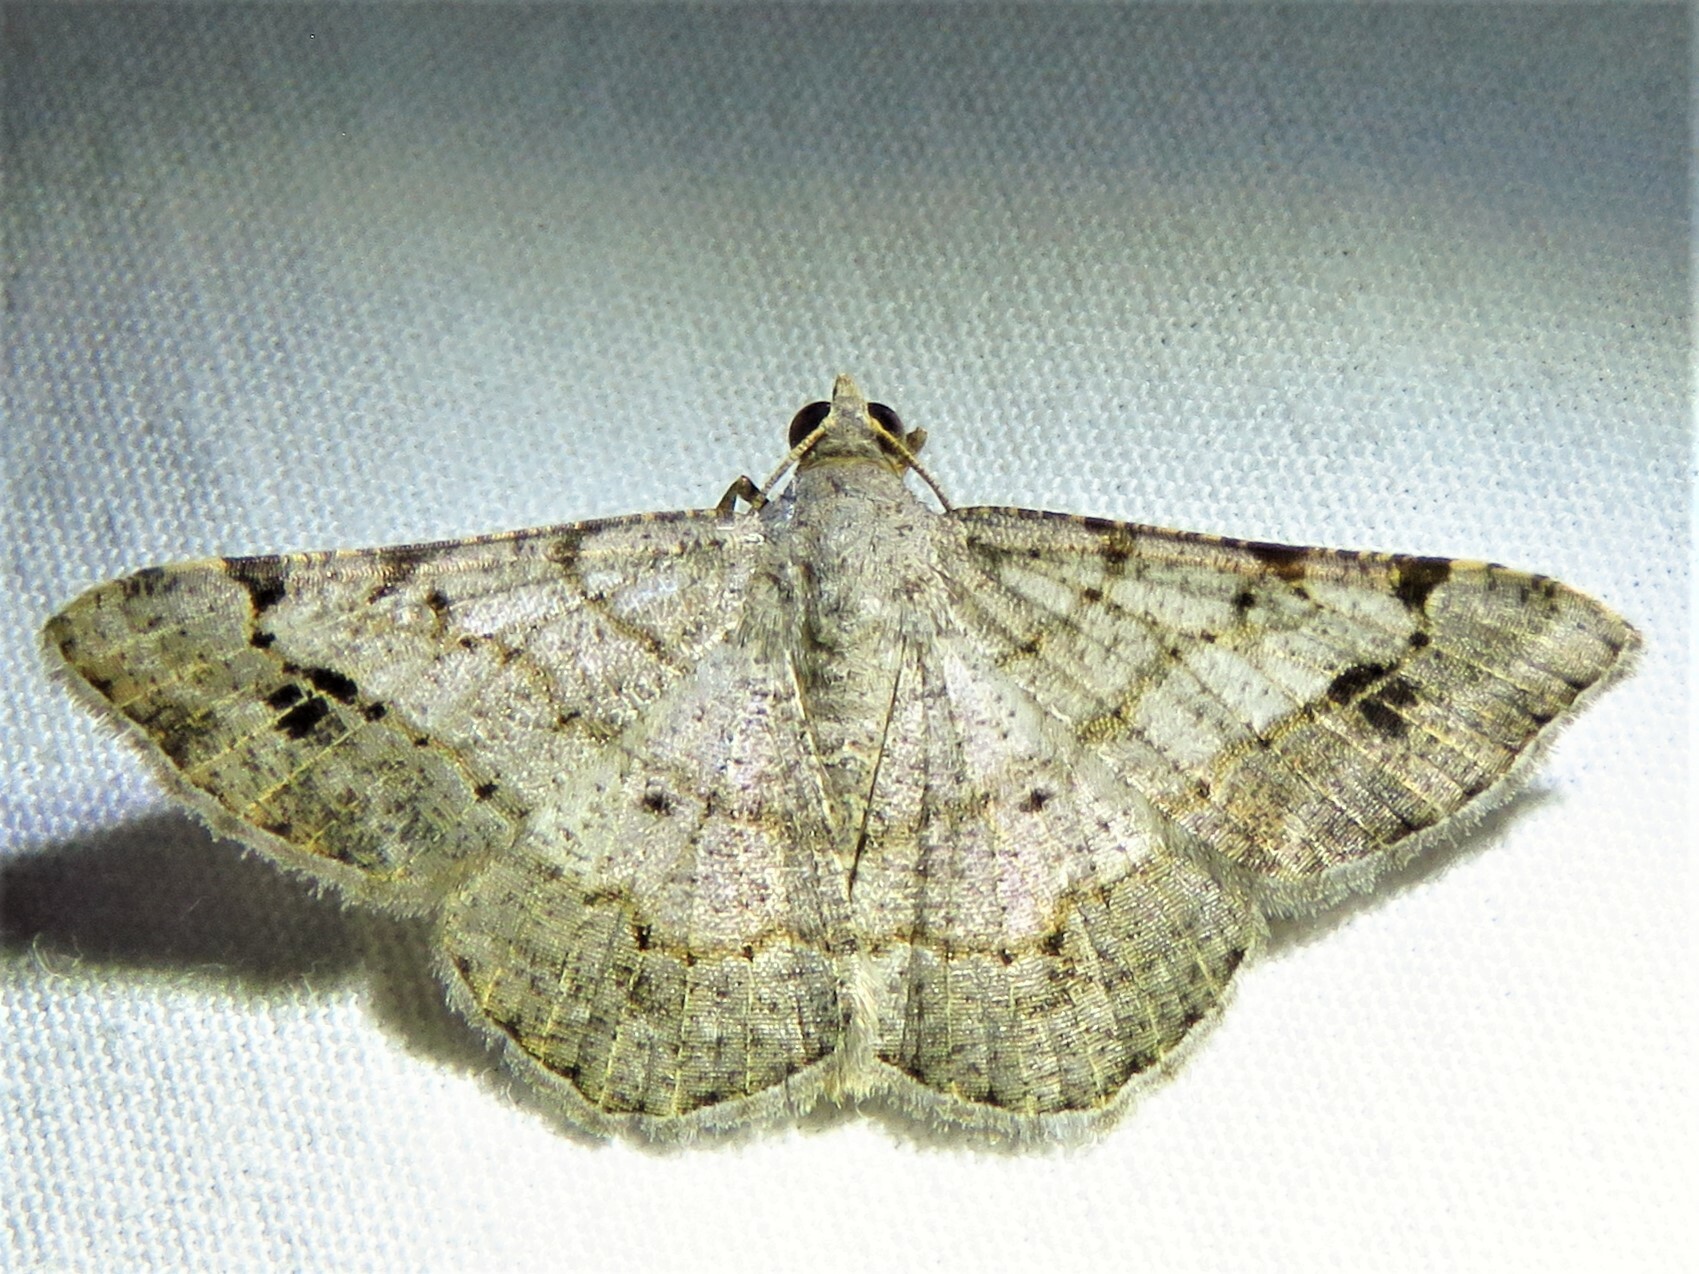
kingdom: Animalia
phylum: Arthropoda
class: Insecta
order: Lepidoptera
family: Geometridae
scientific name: Geometridae
